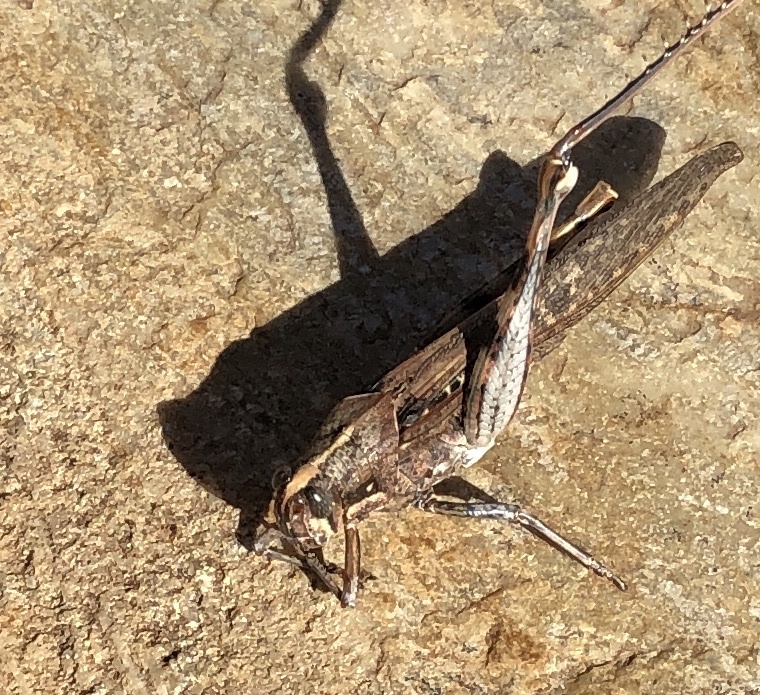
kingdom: Animalia
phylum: Arthropoda
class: Insecta
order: Orthoptera
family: Acrididae
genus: Schistocerca
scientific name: Schistocerca nitens
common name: Vagrant grasshopper
